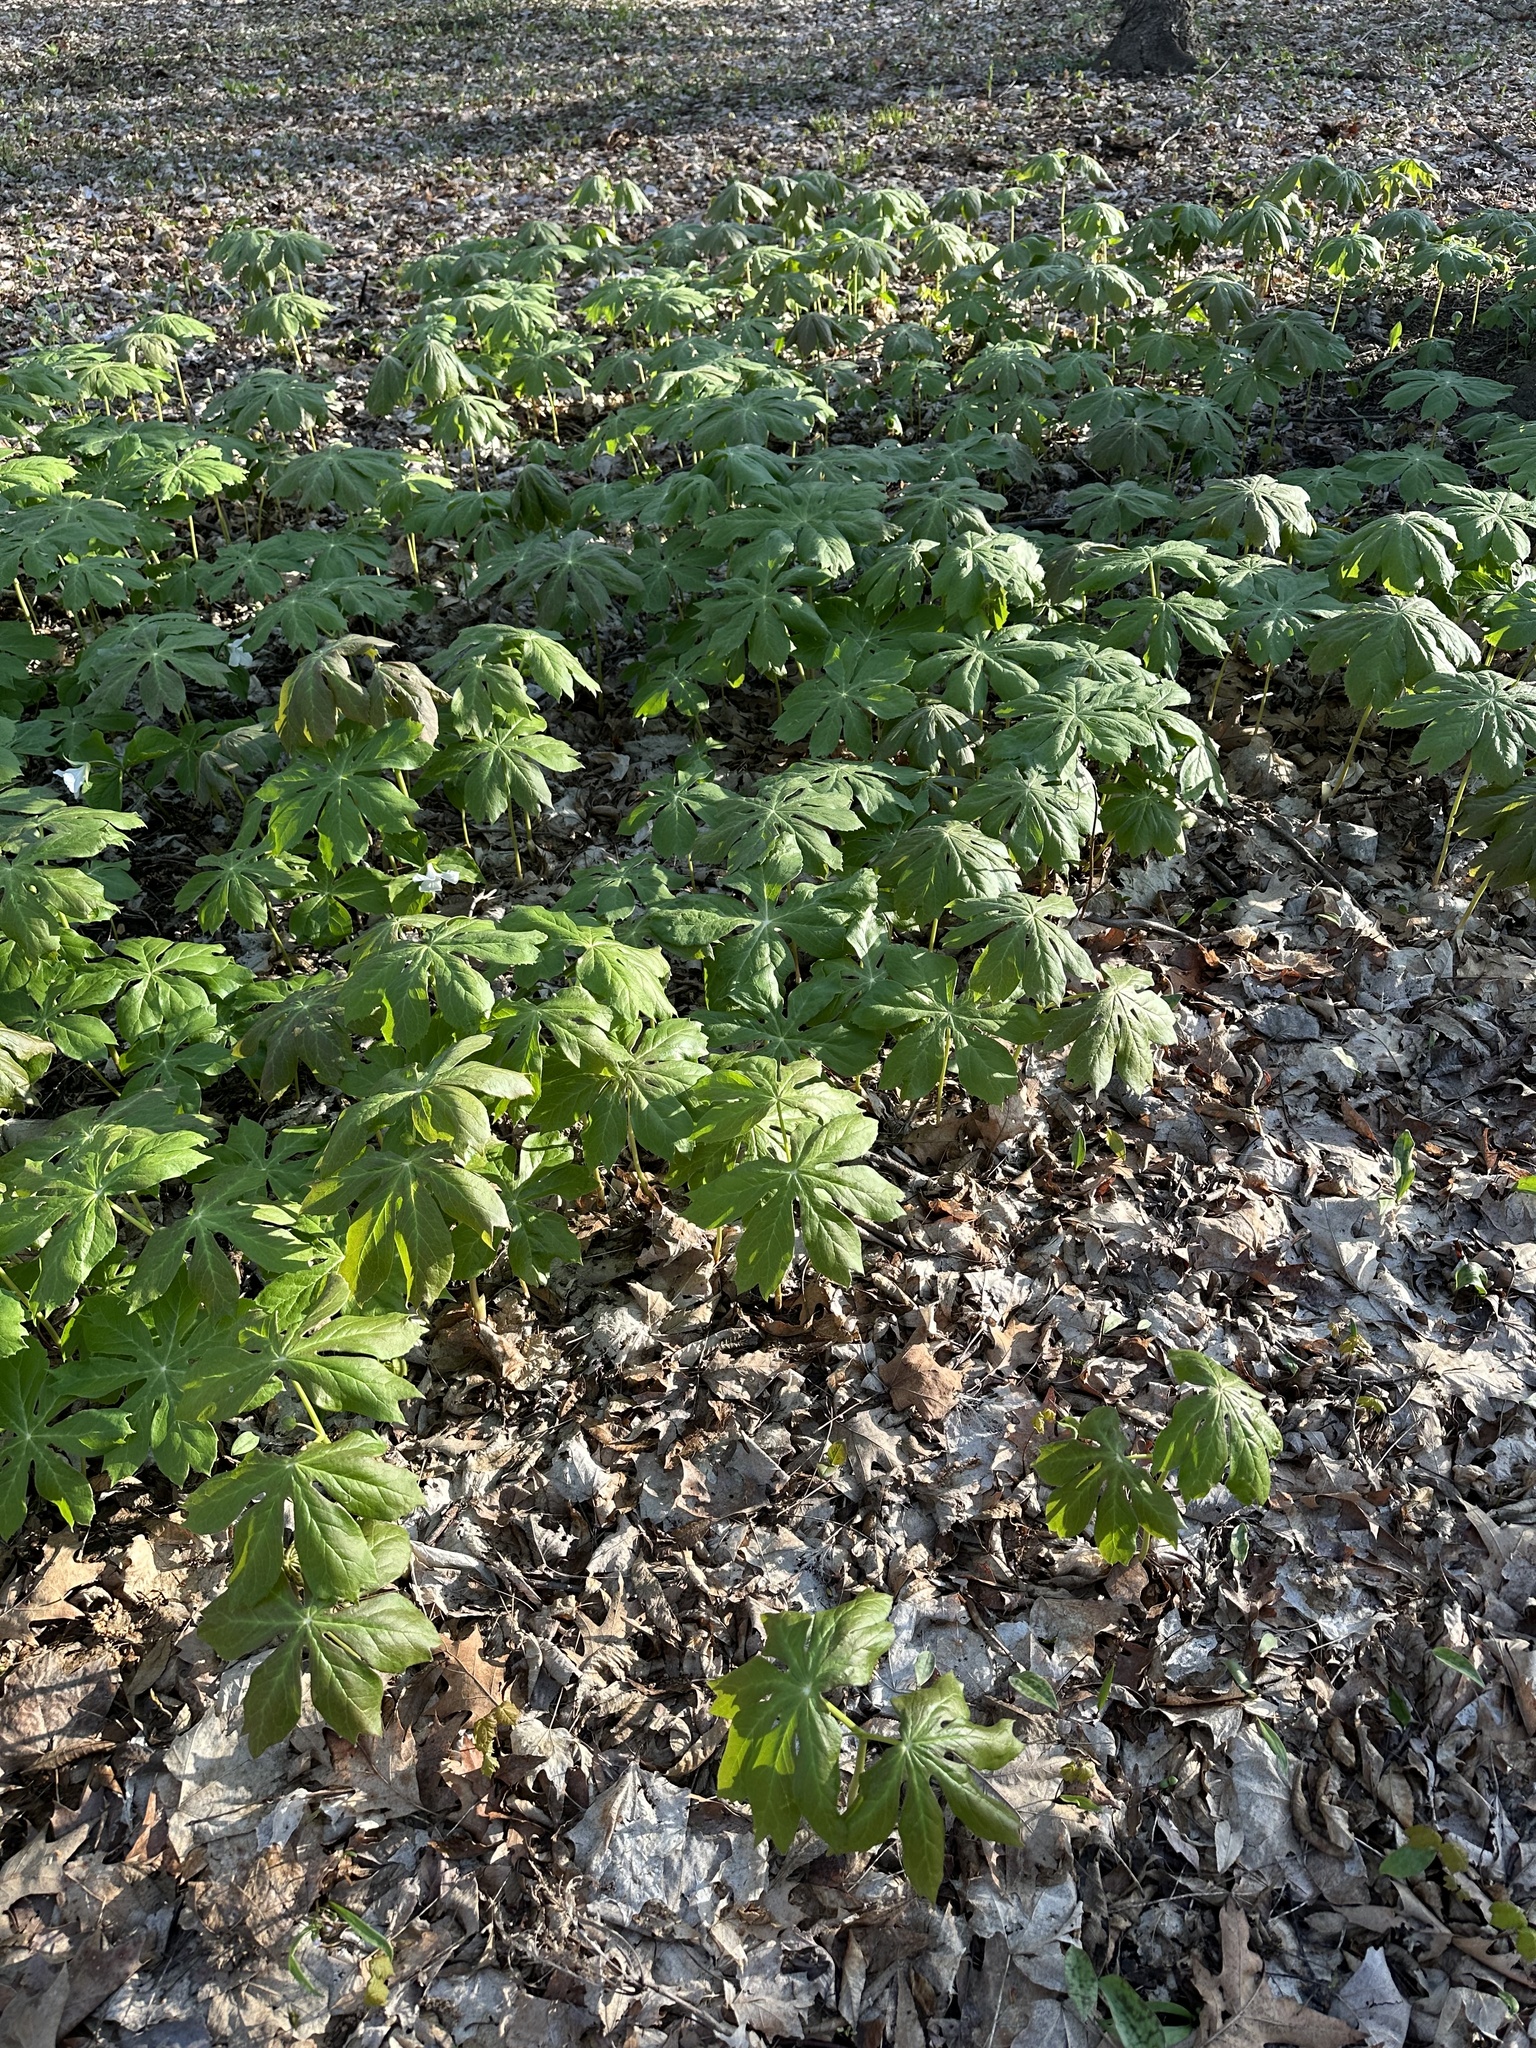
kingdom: Plantae
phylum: Tracheophyta
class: Magnoliopsida
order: Ranunculales
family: Berberidaceae
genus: Podophyllum
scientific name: Podophyllum peltatum
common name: Wild mandrake
